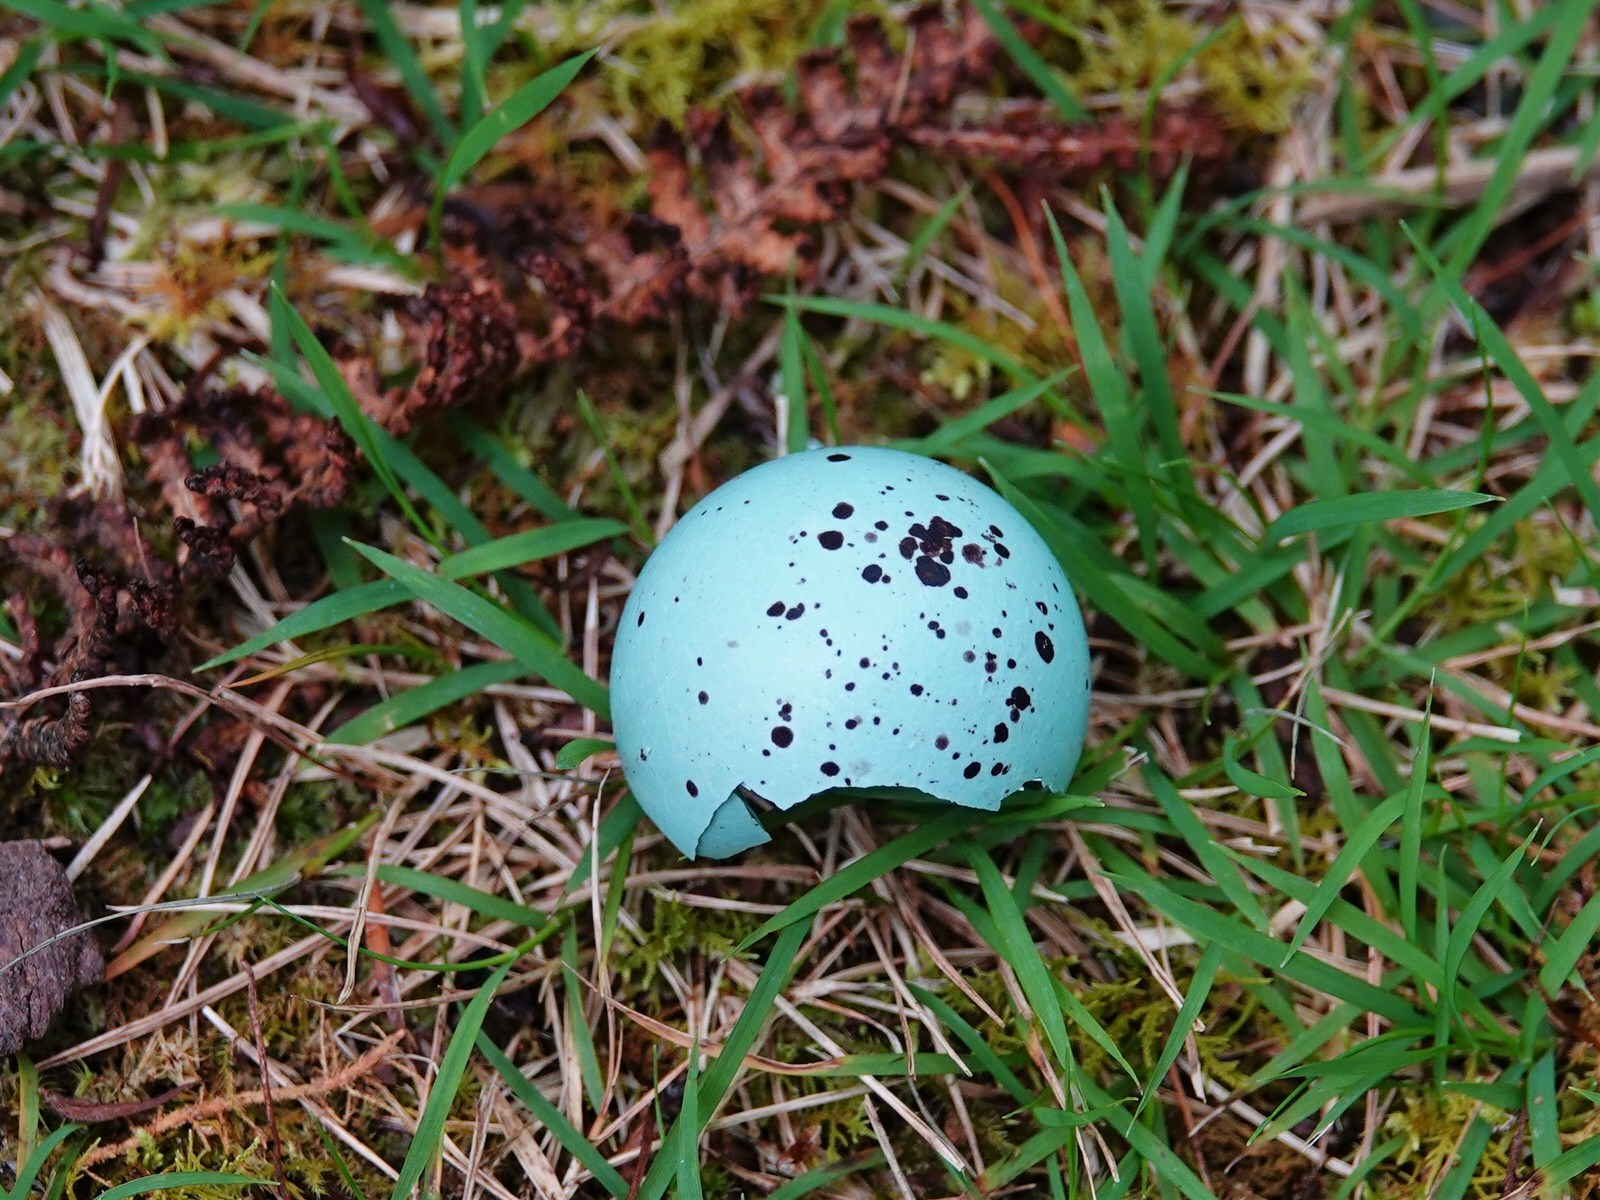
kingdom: Animalia
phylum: Chordata
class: Aves
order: Passeriformes
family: Turdidae
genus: Turdus
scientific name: Turdus philomelos
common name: Song thrush
